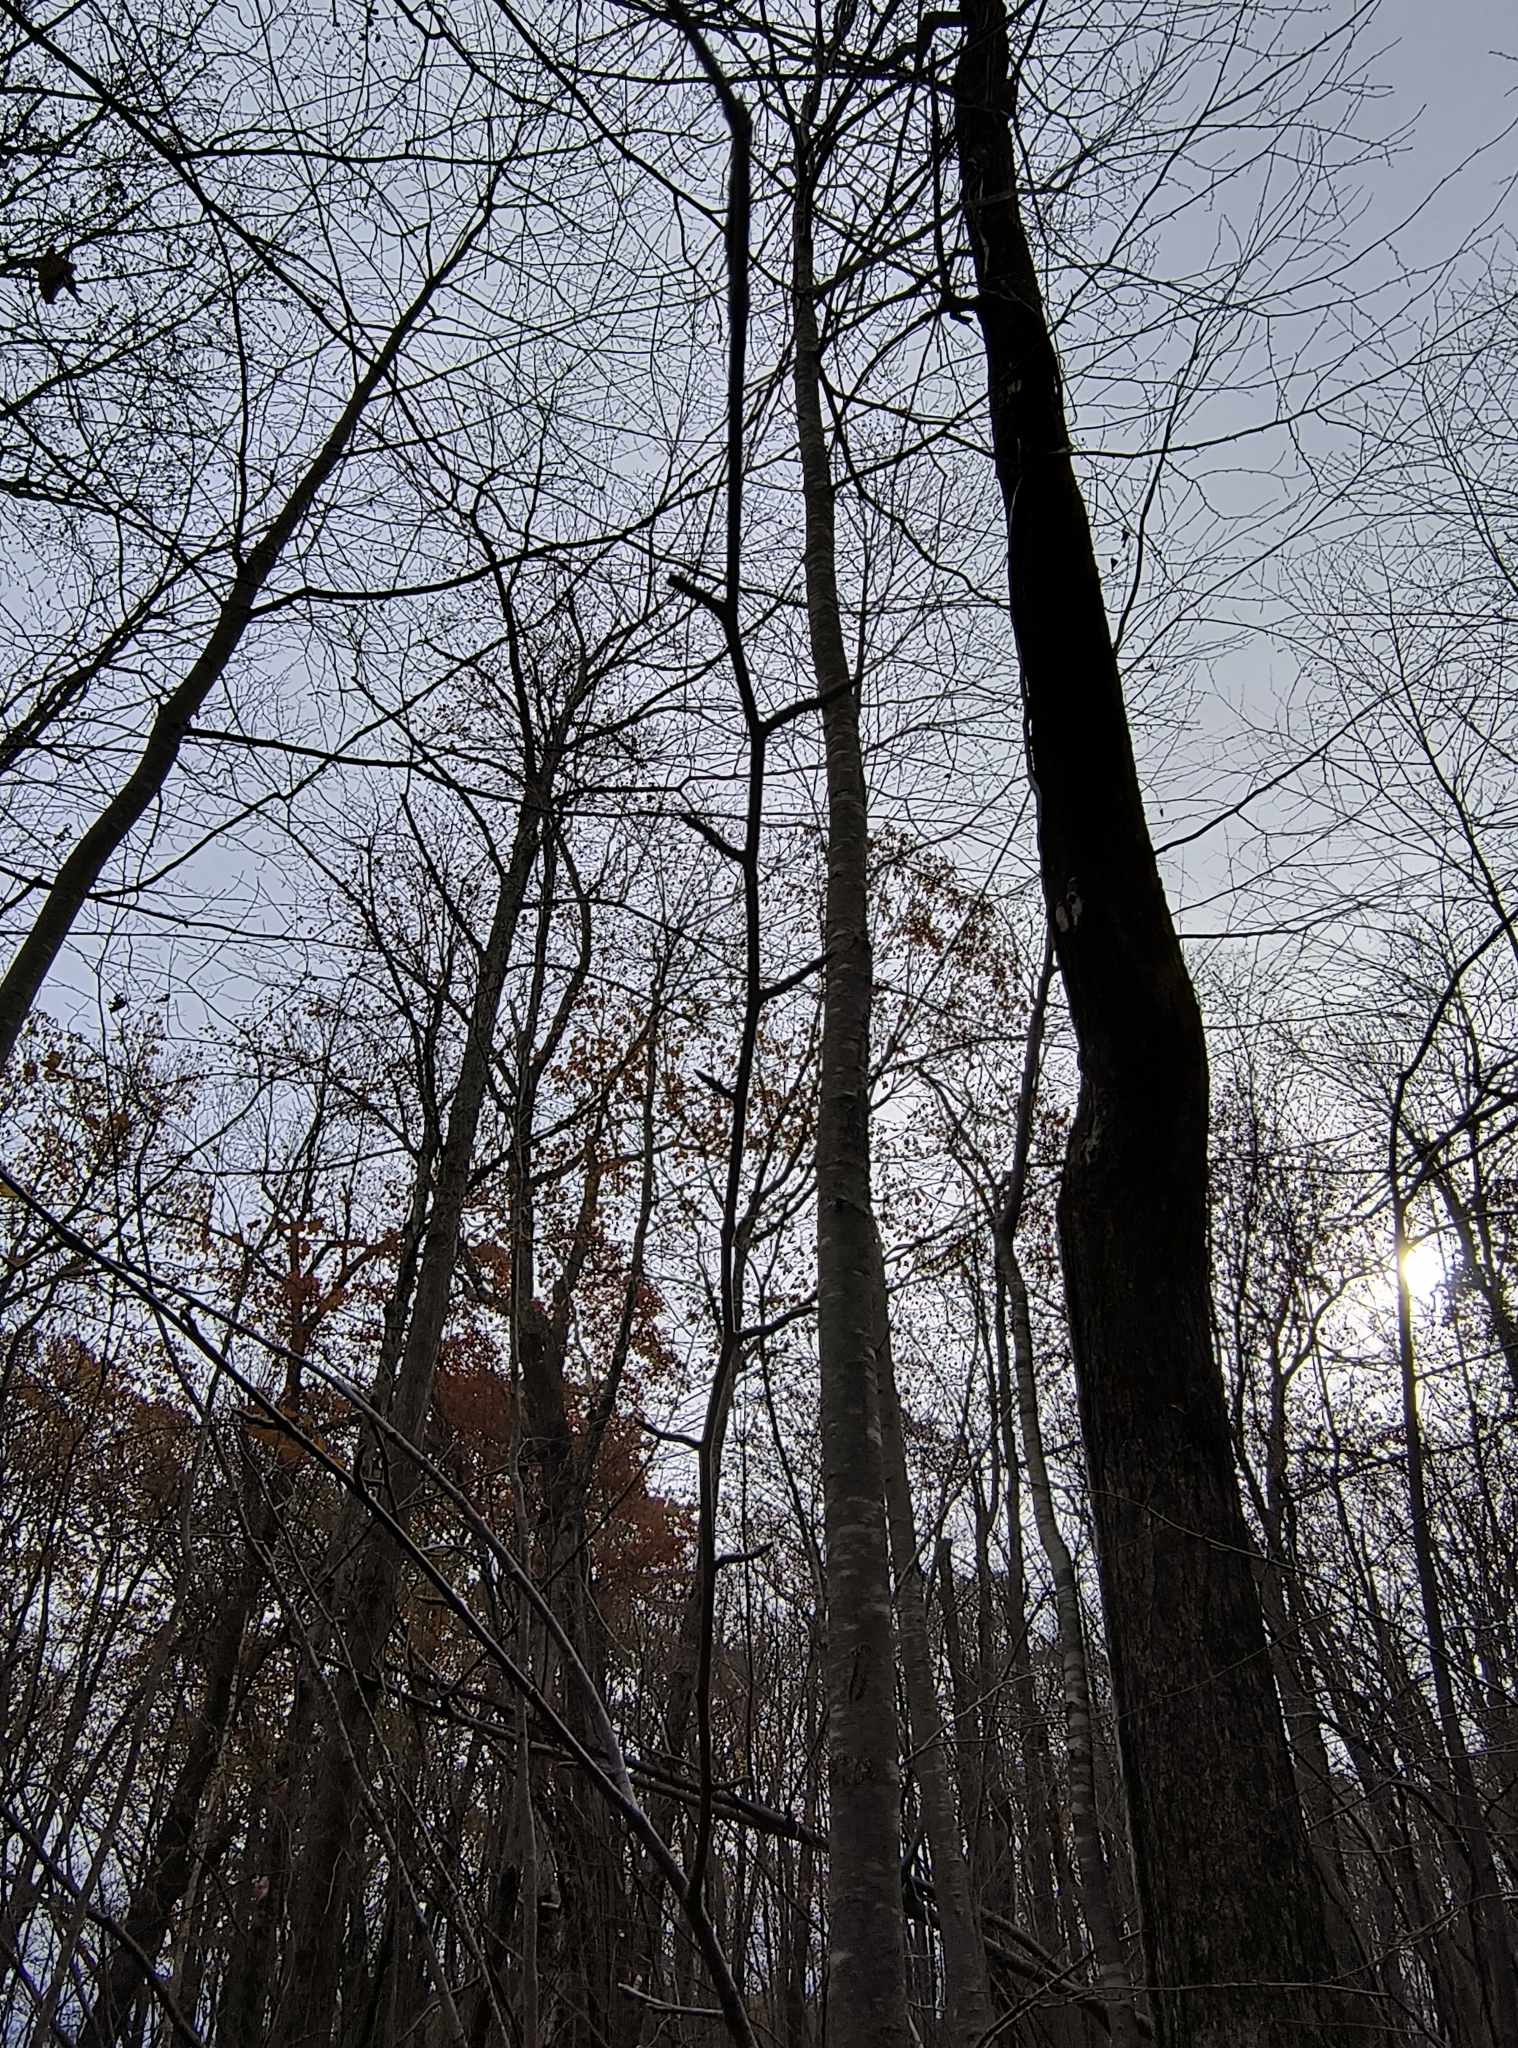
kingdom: Plantae
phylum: Tracheophyta
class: Magnoliopsida
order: Fagales
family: Betulaceae
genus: Betula
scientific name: Betula lenta
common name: Black birch
